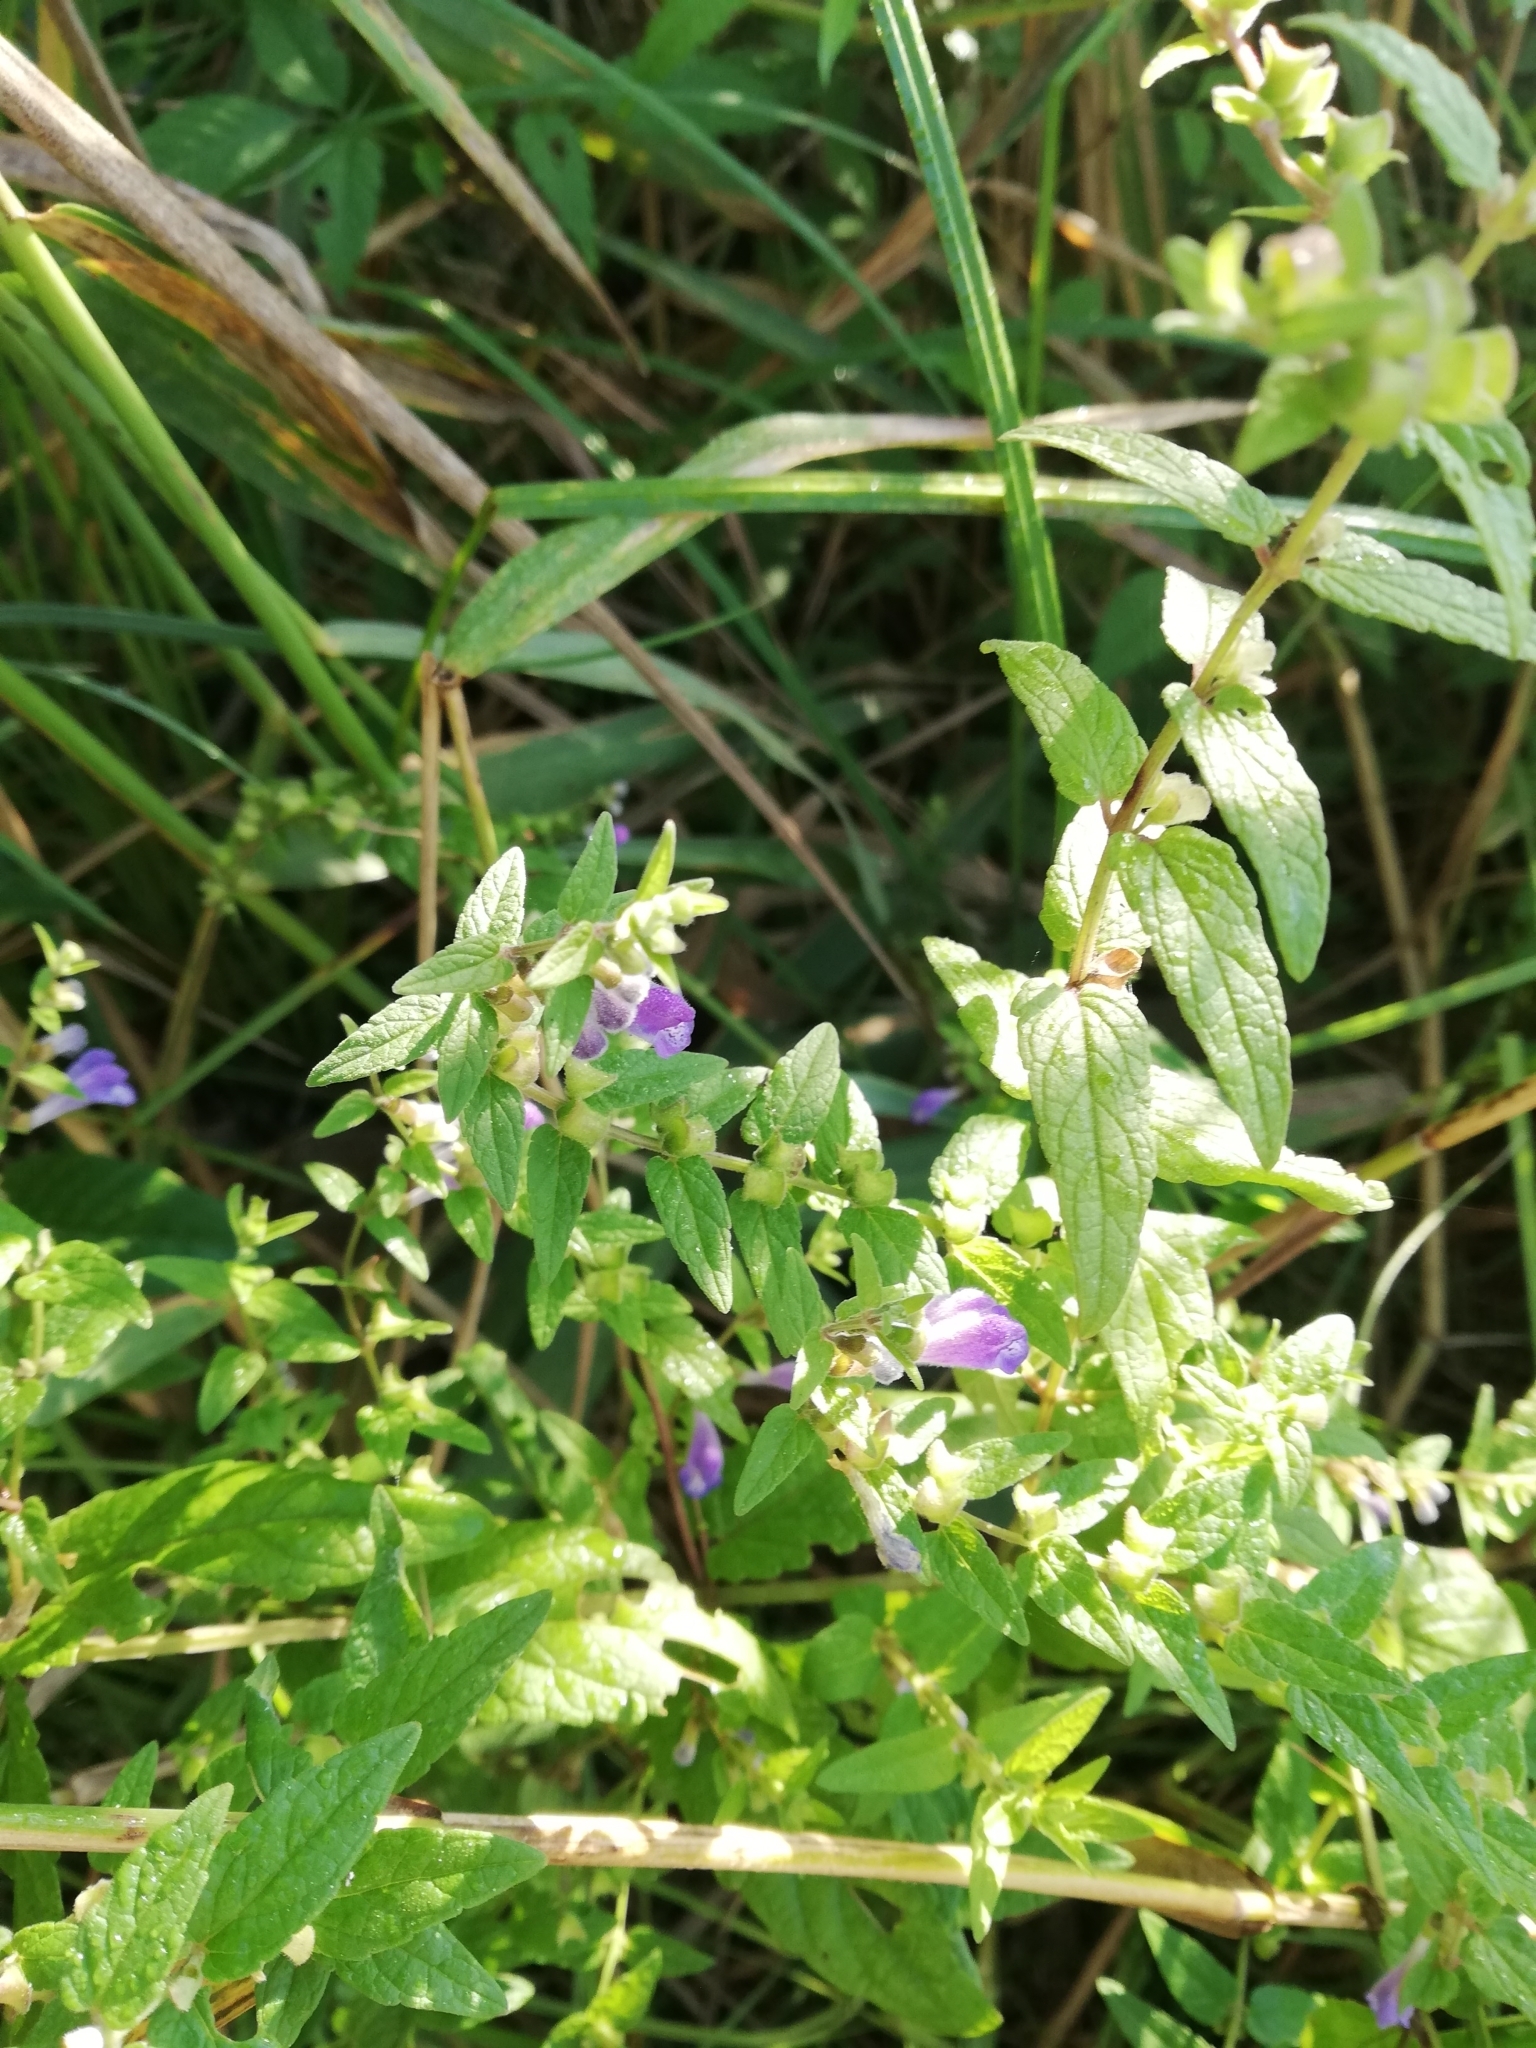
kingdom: Plantae
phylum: Tracheophyta
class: Magnoliopsida
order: Lamiales
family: Lamiaceae
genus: Scutellaria
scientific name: Scutellaria galericulata
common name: Skullcap
